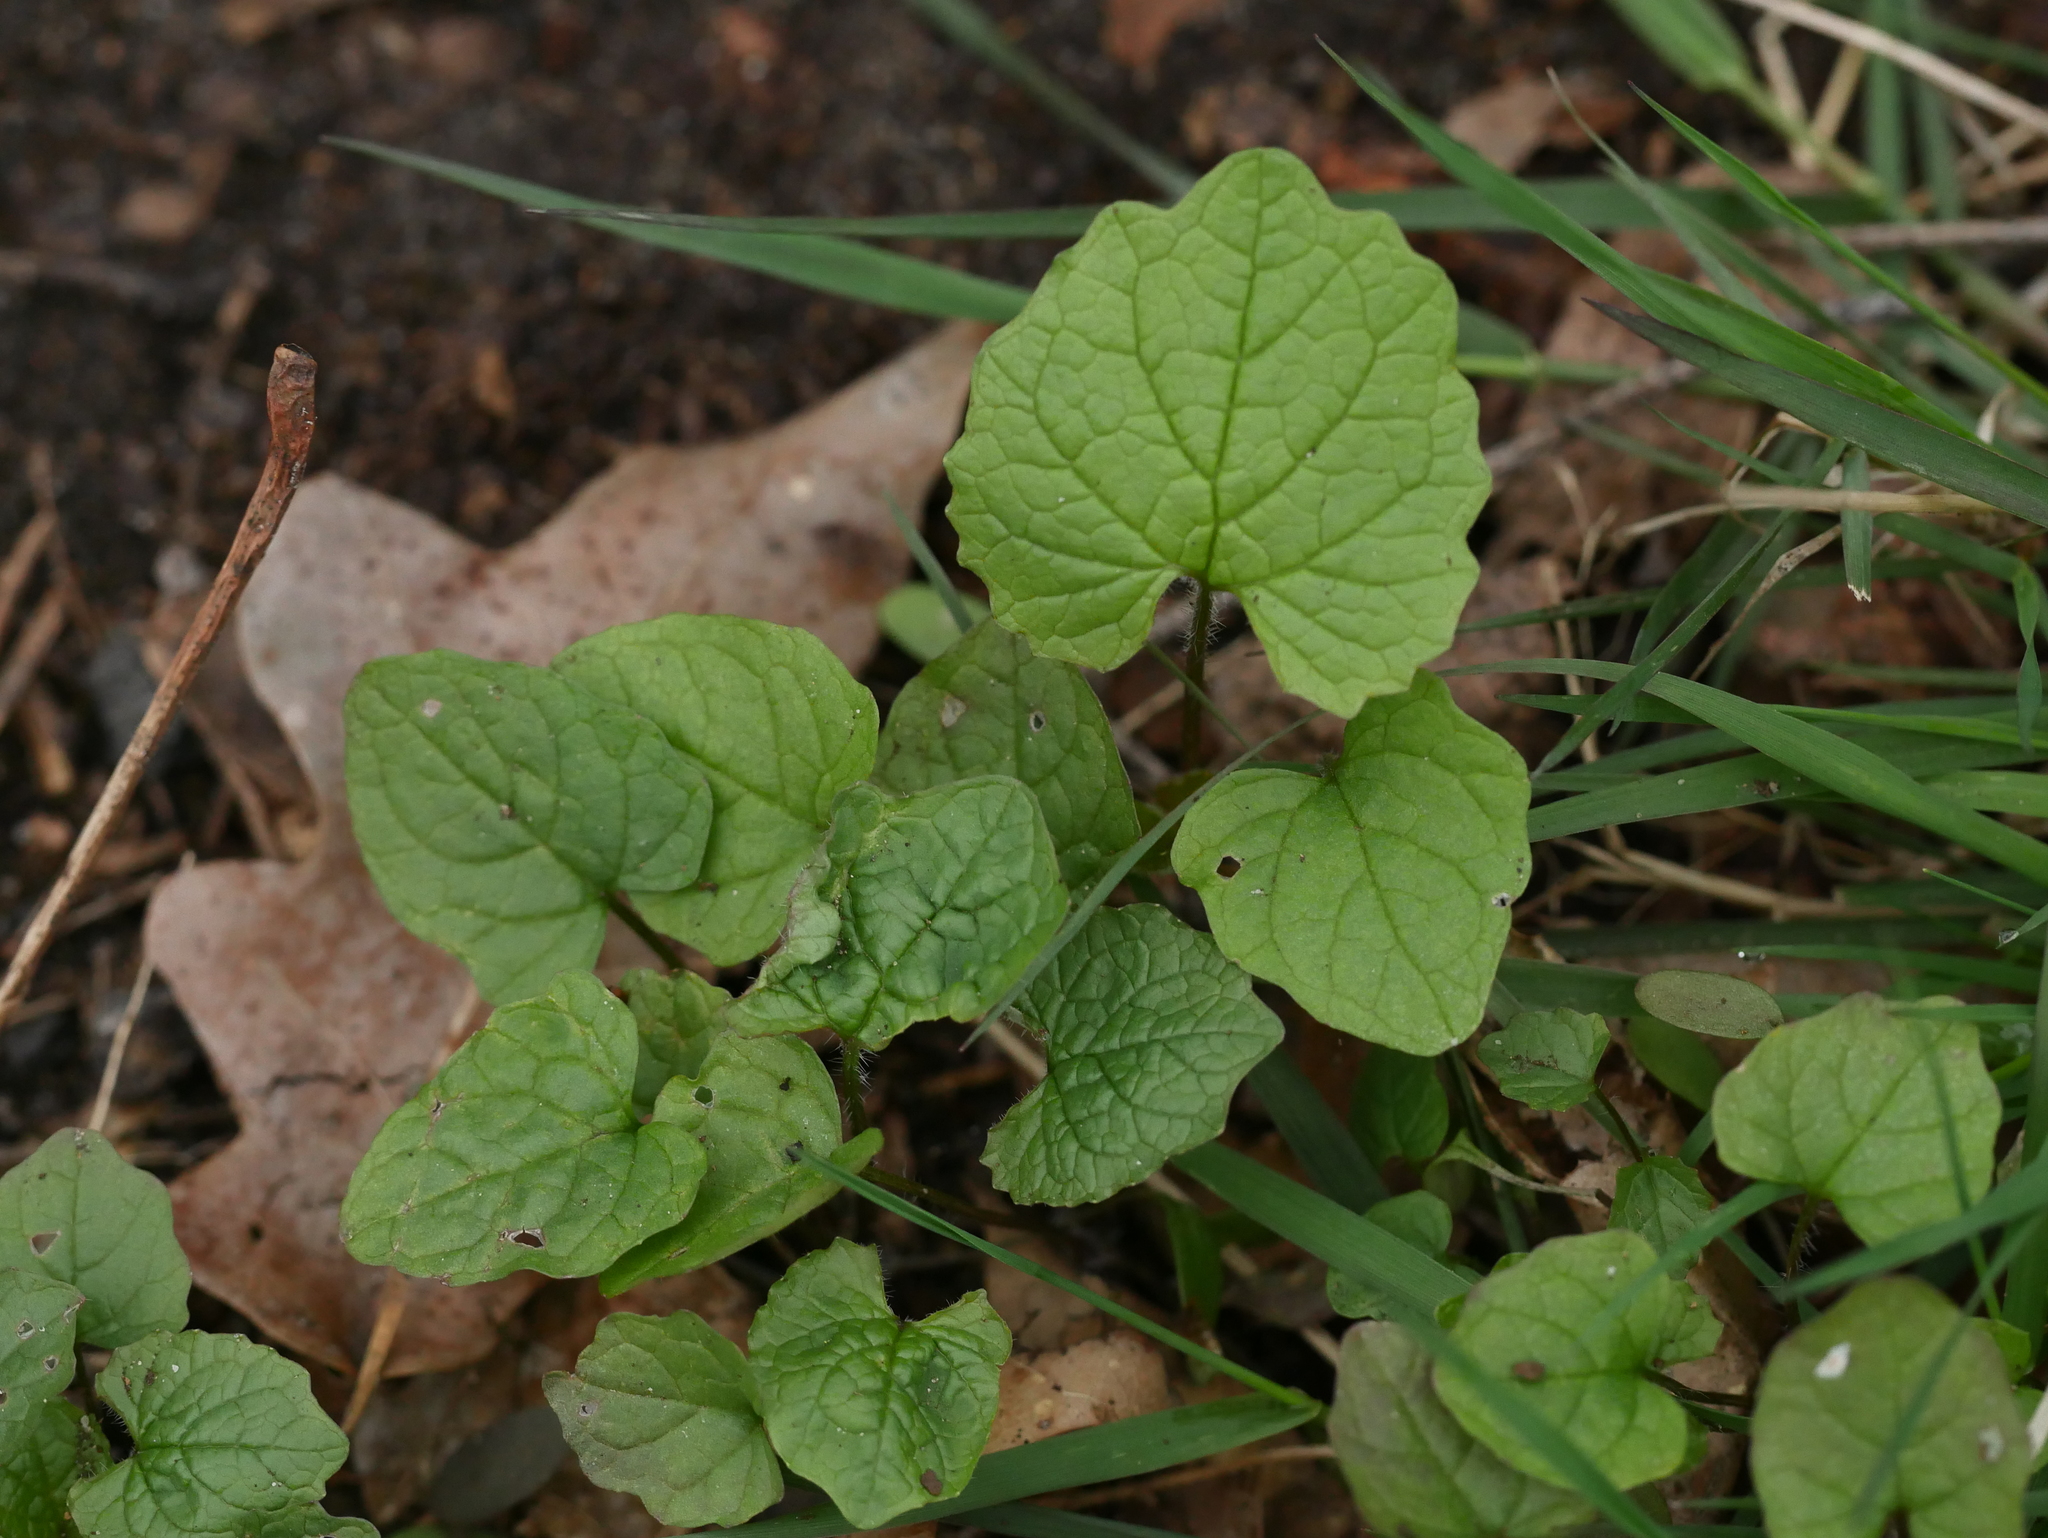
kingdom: Plantae
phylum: Tracheophyta
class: Magnoliopsida
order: Brassicales
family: Brassicaceae
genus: Alliaria
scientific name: Alliaria petiolata
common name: Garlic mustard
